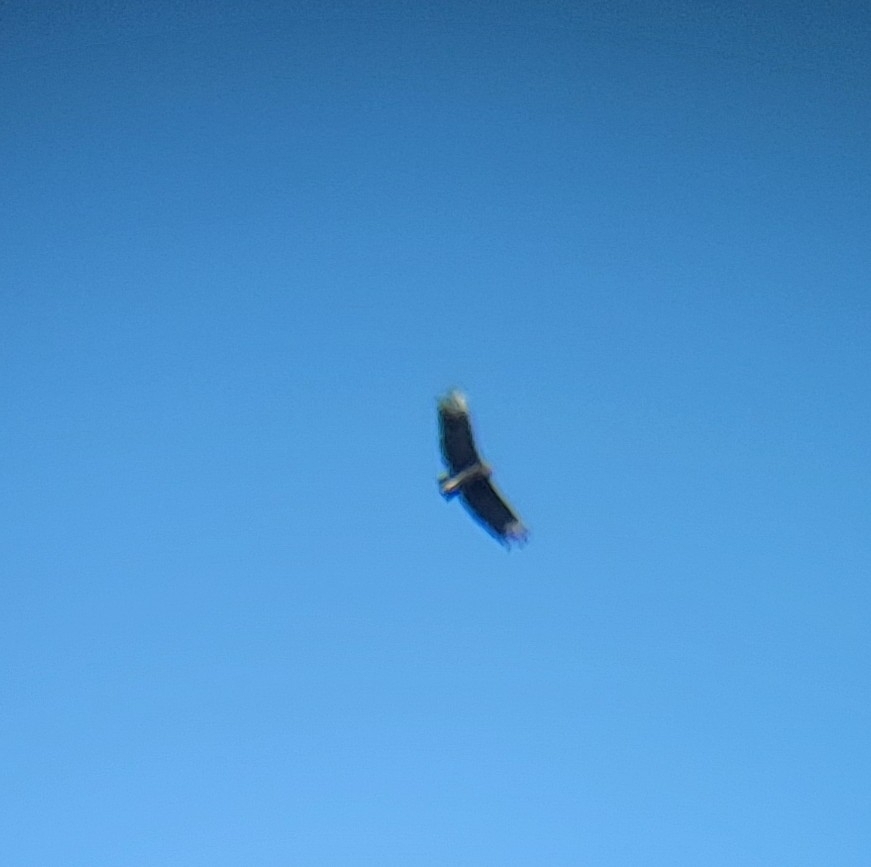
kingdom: Animalia
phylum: Chordata
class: Aves
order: Accipitriformes
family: Cathartidae
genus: Coragyps
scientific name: Coragyps atratus
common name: Black vulture
